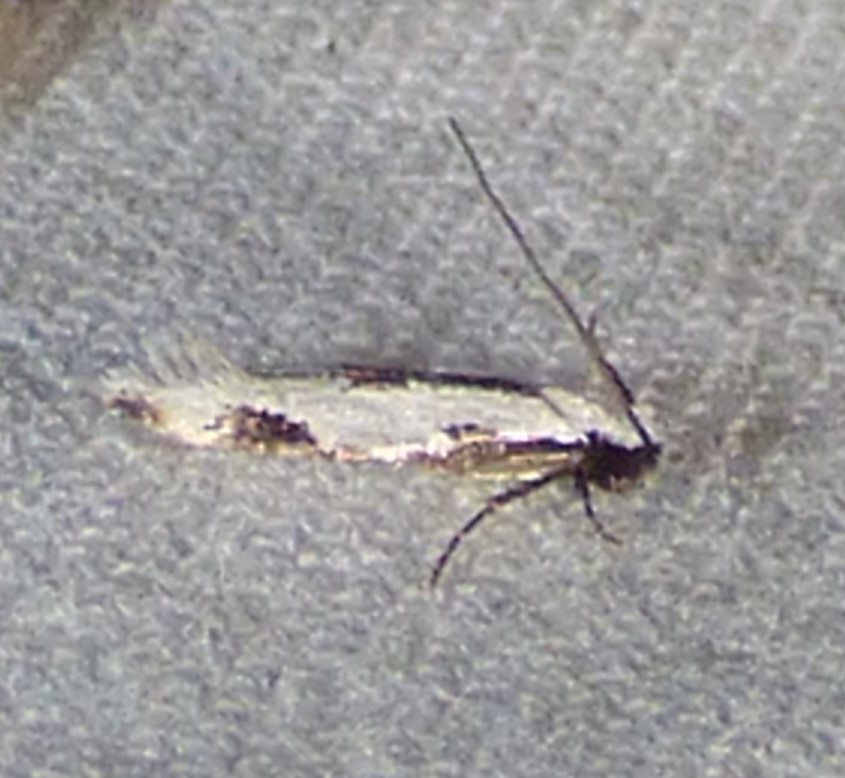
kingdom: Animalia
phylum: Arthropoda
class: Insecta
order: Lepidoptera
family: Meessiidae
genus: Mea
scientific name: Mea bipunctella
